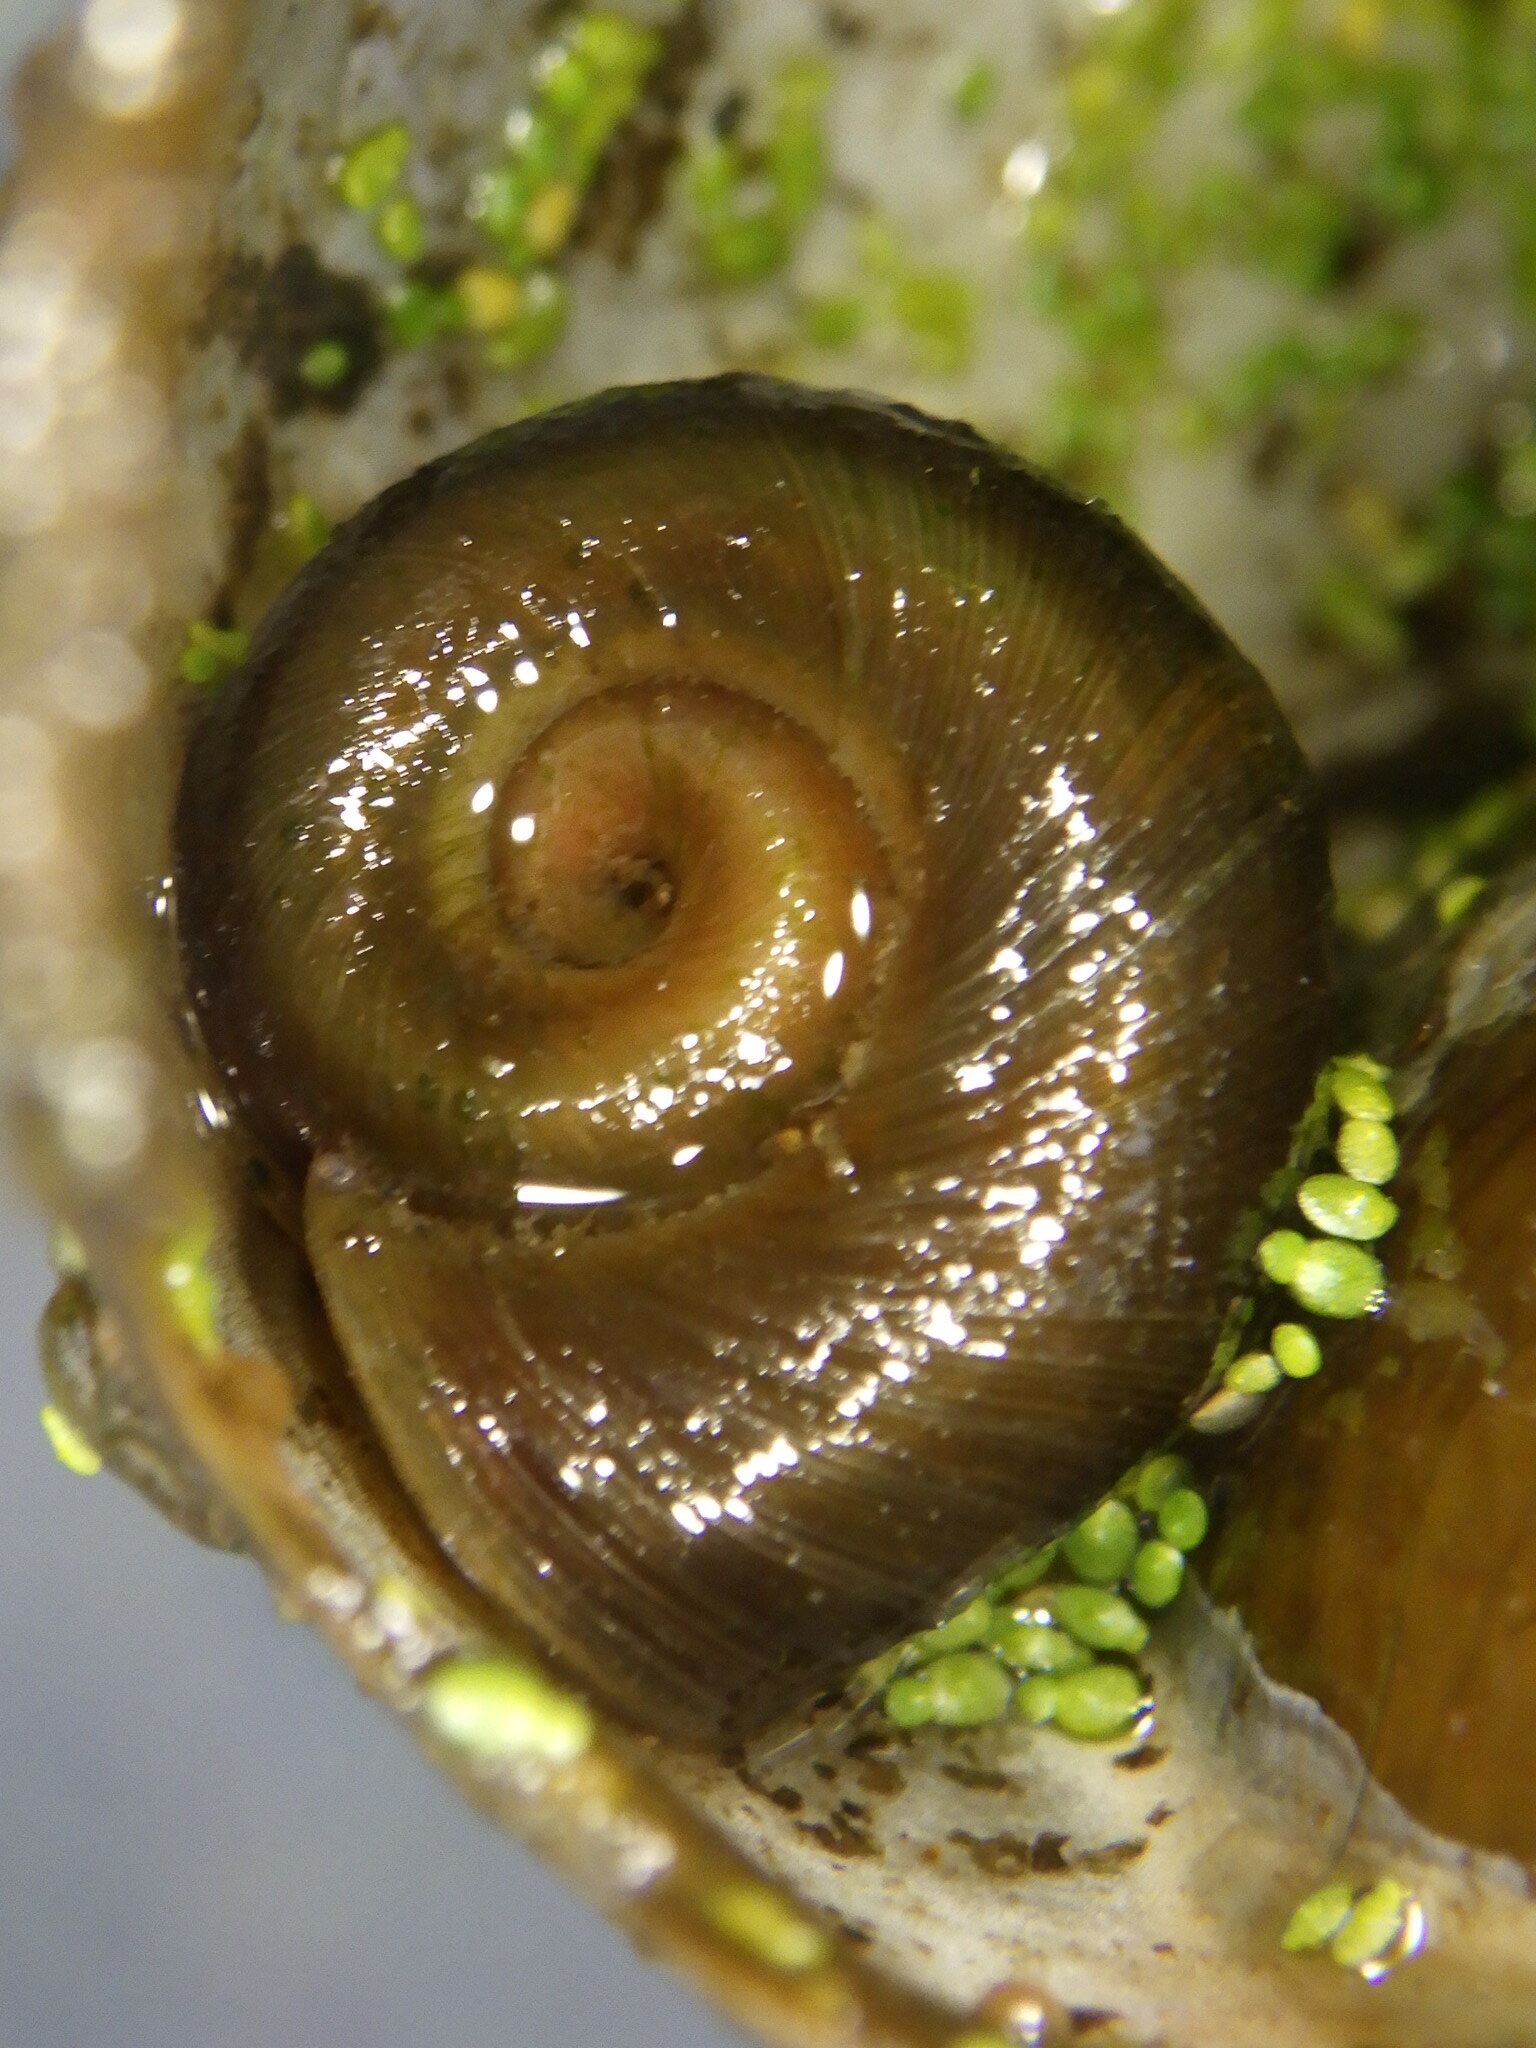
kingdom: Animalia
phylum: Mollusca
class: Gastropoda
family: Planorbidae
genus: Planorbella
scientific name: Planorbella trivolvis
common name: Marsh rams-horn
